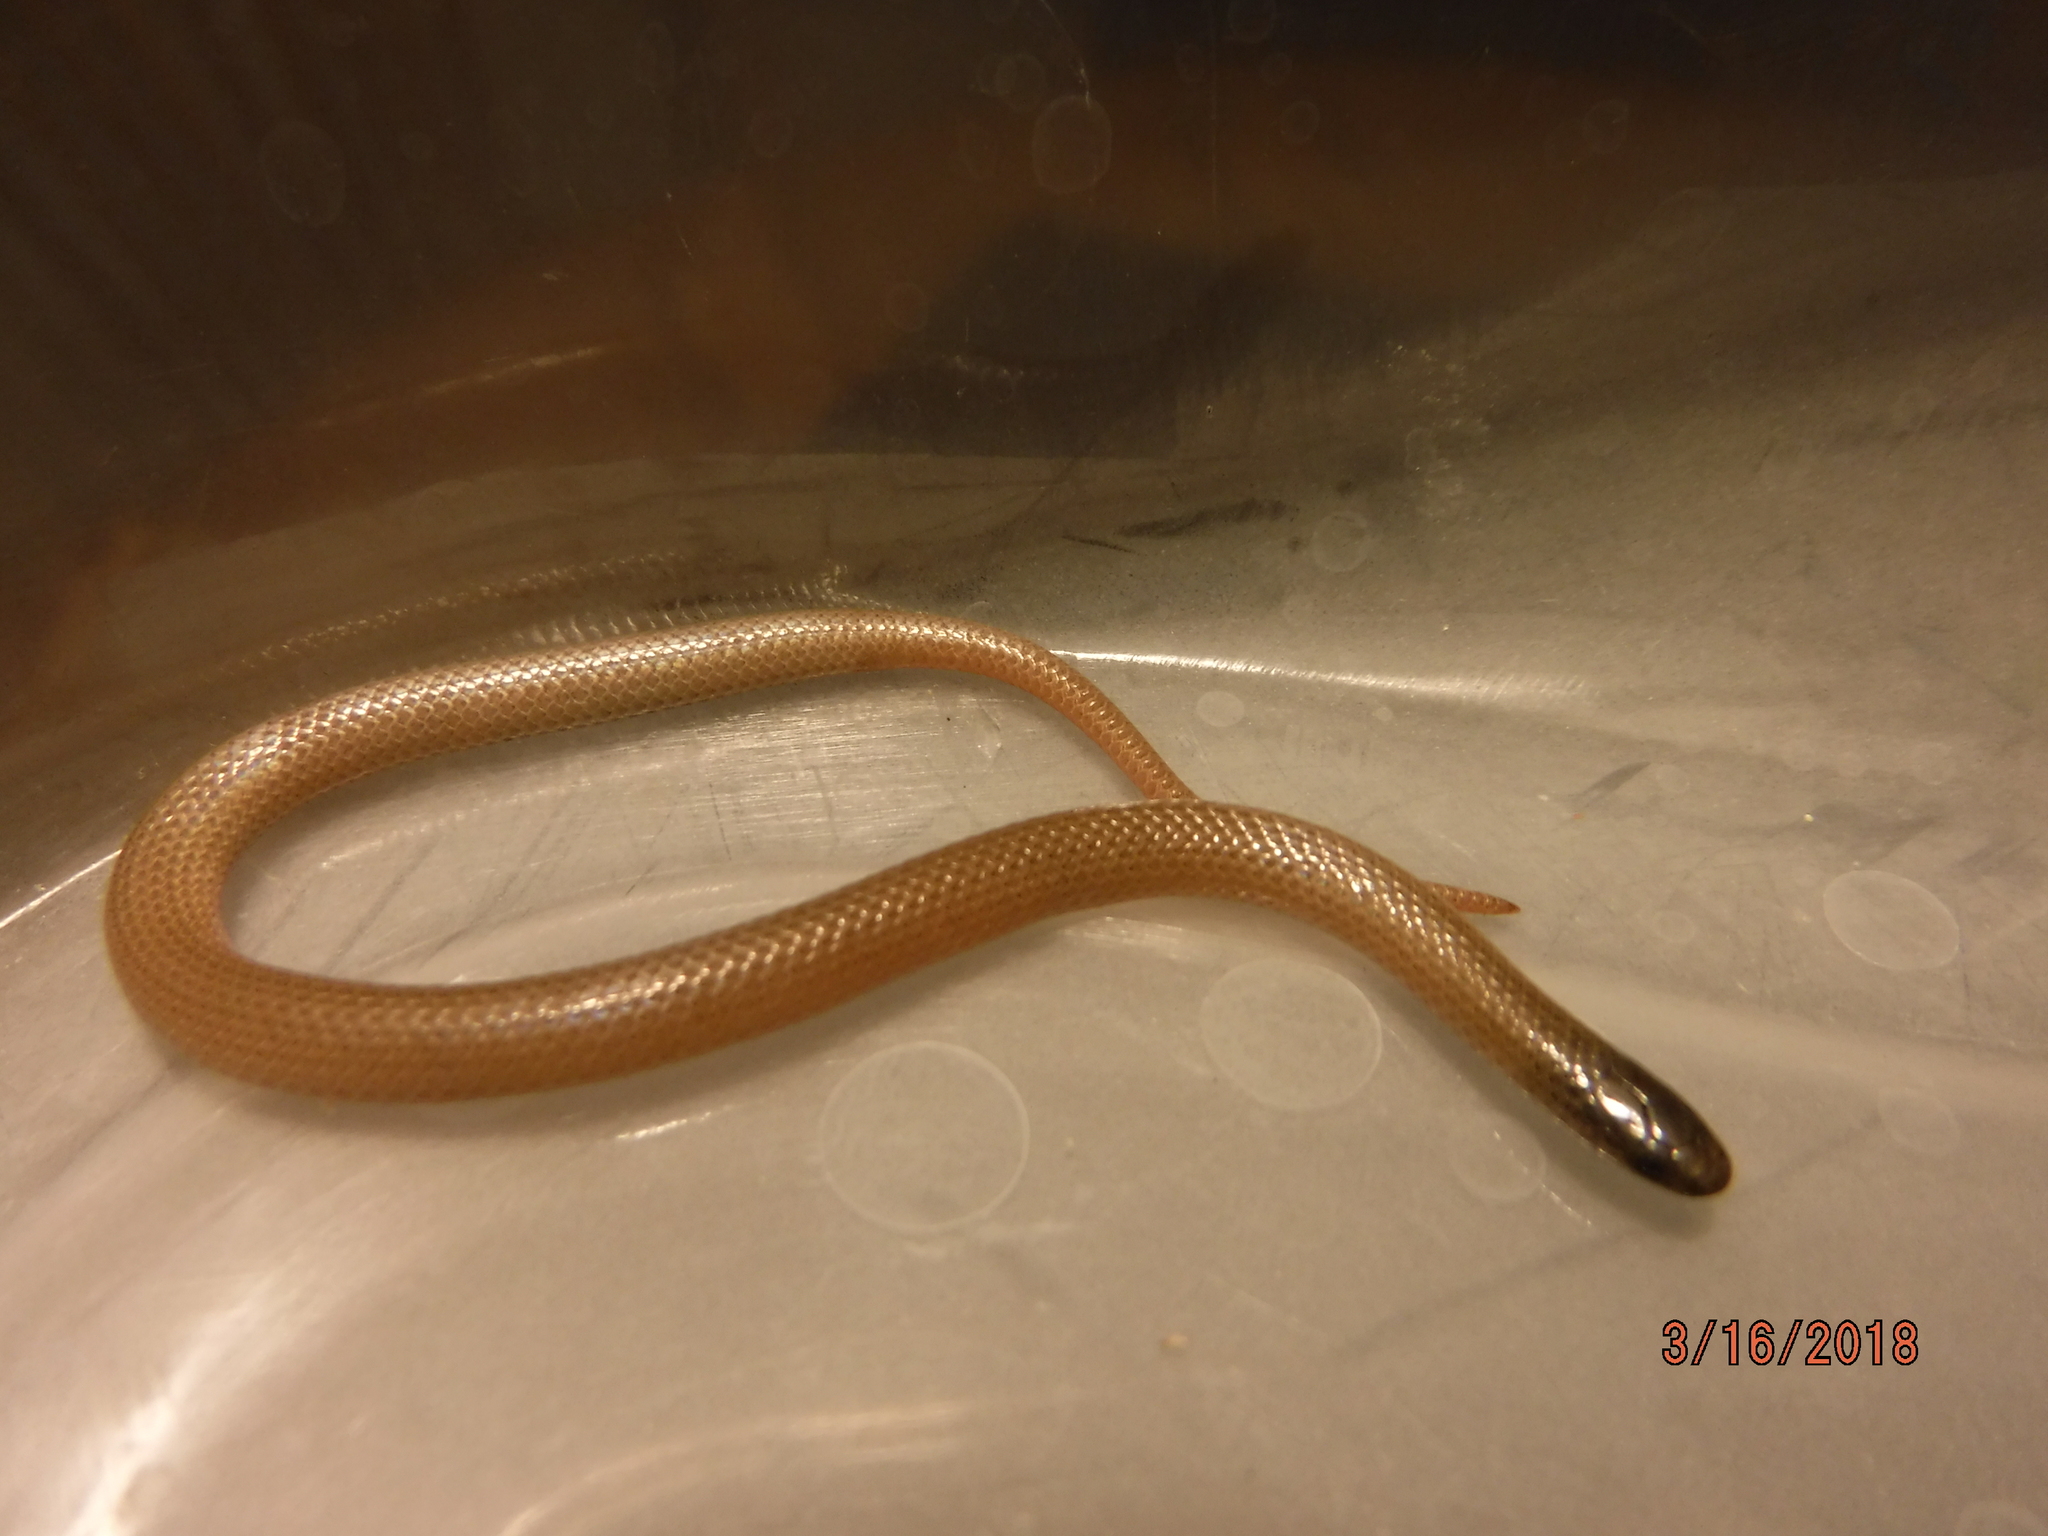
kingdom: Animalia
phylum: Chordata
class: Squamata
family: Colubridae
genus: Tantilla
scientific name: Tantilla gracilis
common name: Flathead snake
